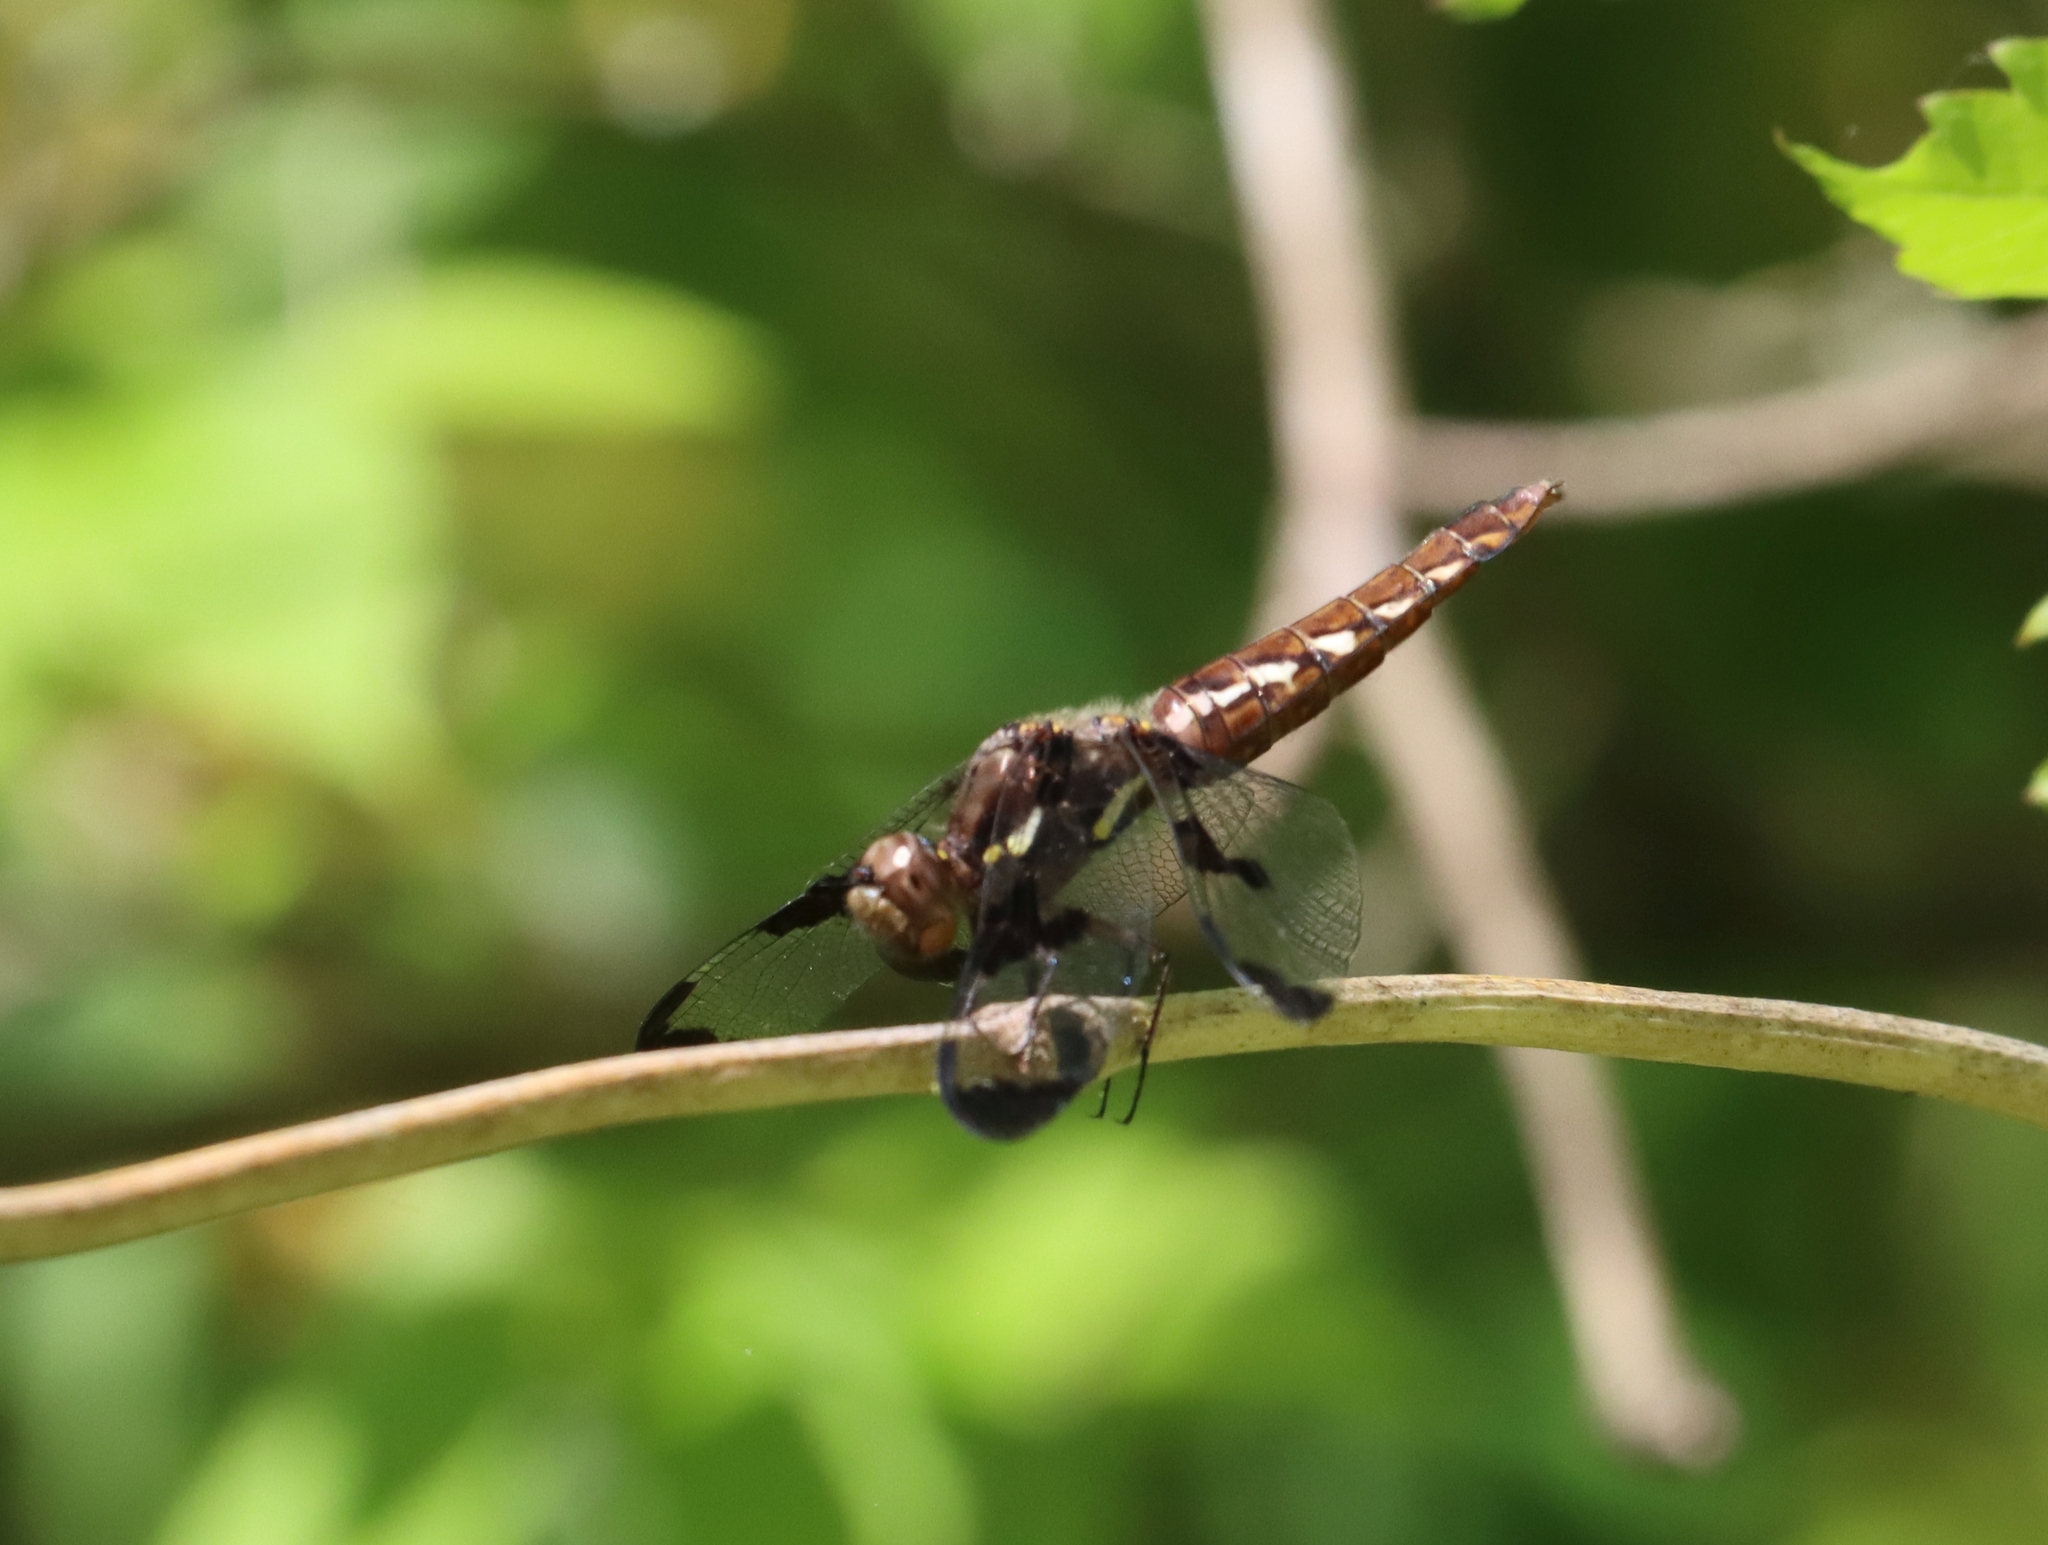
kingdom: Animalia
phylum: Arthropoda
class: Insecta
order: Odonata
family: Libellulidae
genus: Plathemis
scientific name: Plathemis lydia
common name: Common whitetail
